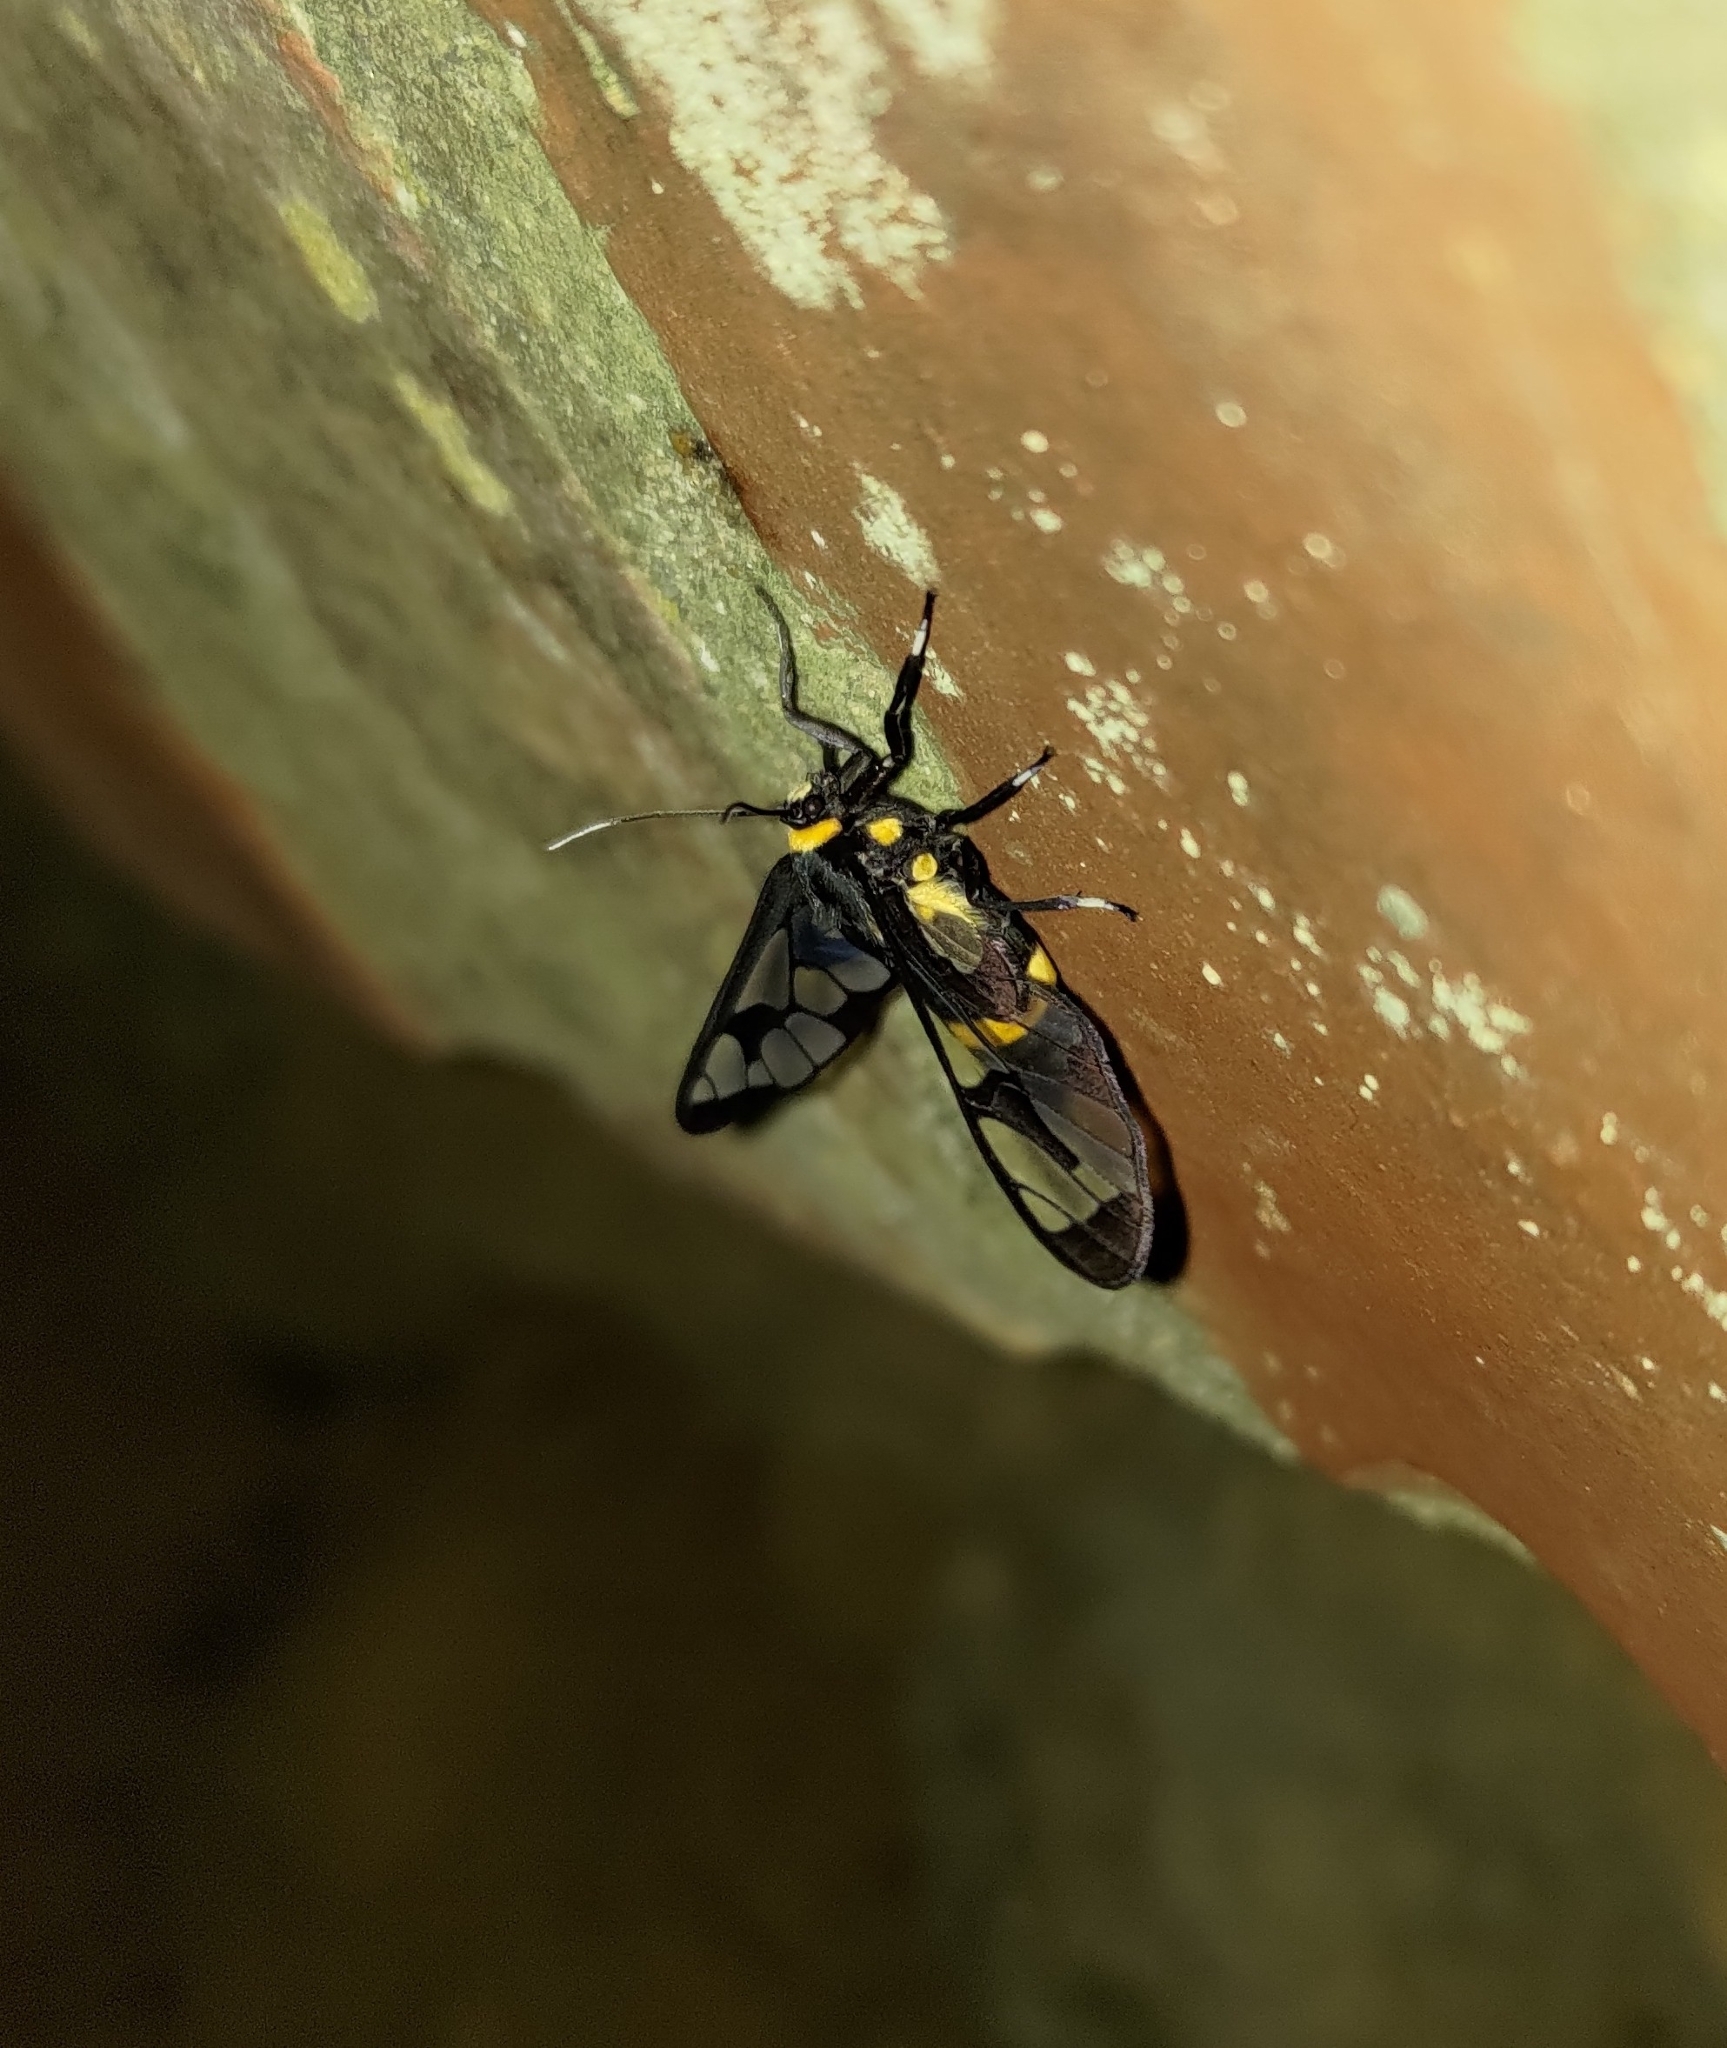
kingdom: Animalia
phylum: Arthropoda
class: Insecta
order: Lepidoptera
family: Erebidae
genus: Syntomoides
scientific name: Syntomoides imaon
